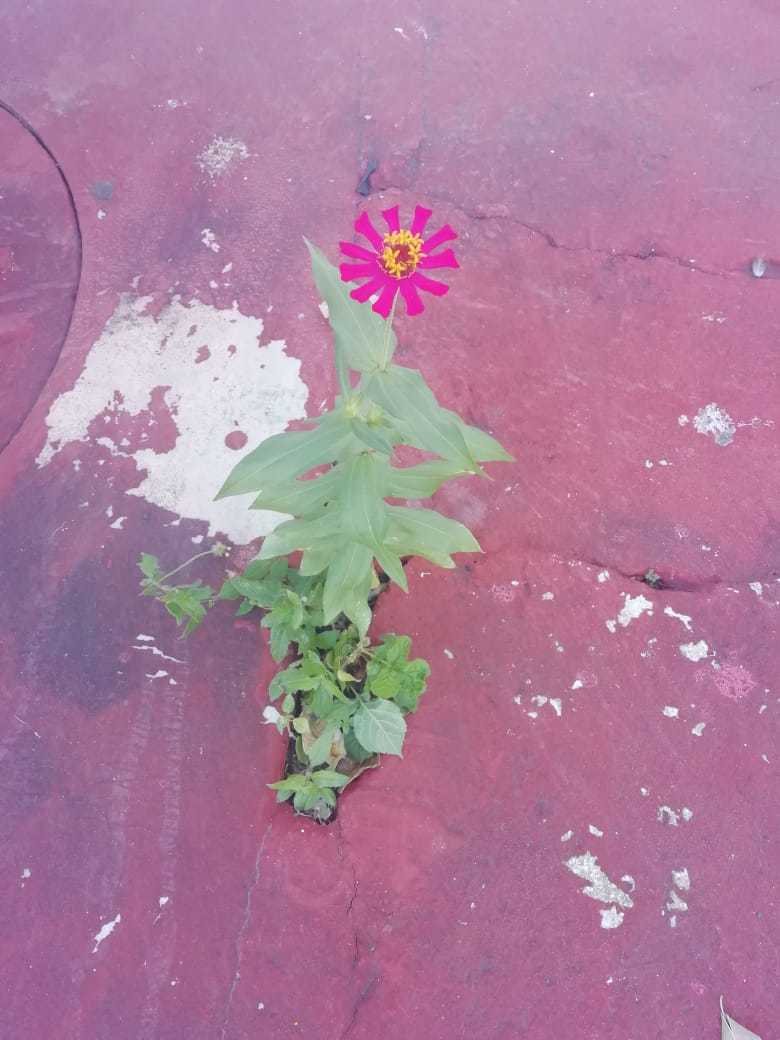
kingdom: Plantae
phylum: Tracheophyta
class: Magnoliopsida
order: Asterales
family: Asteraceae
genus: Zinnia
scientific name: Zinnia elegans
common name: Youth-and-age
